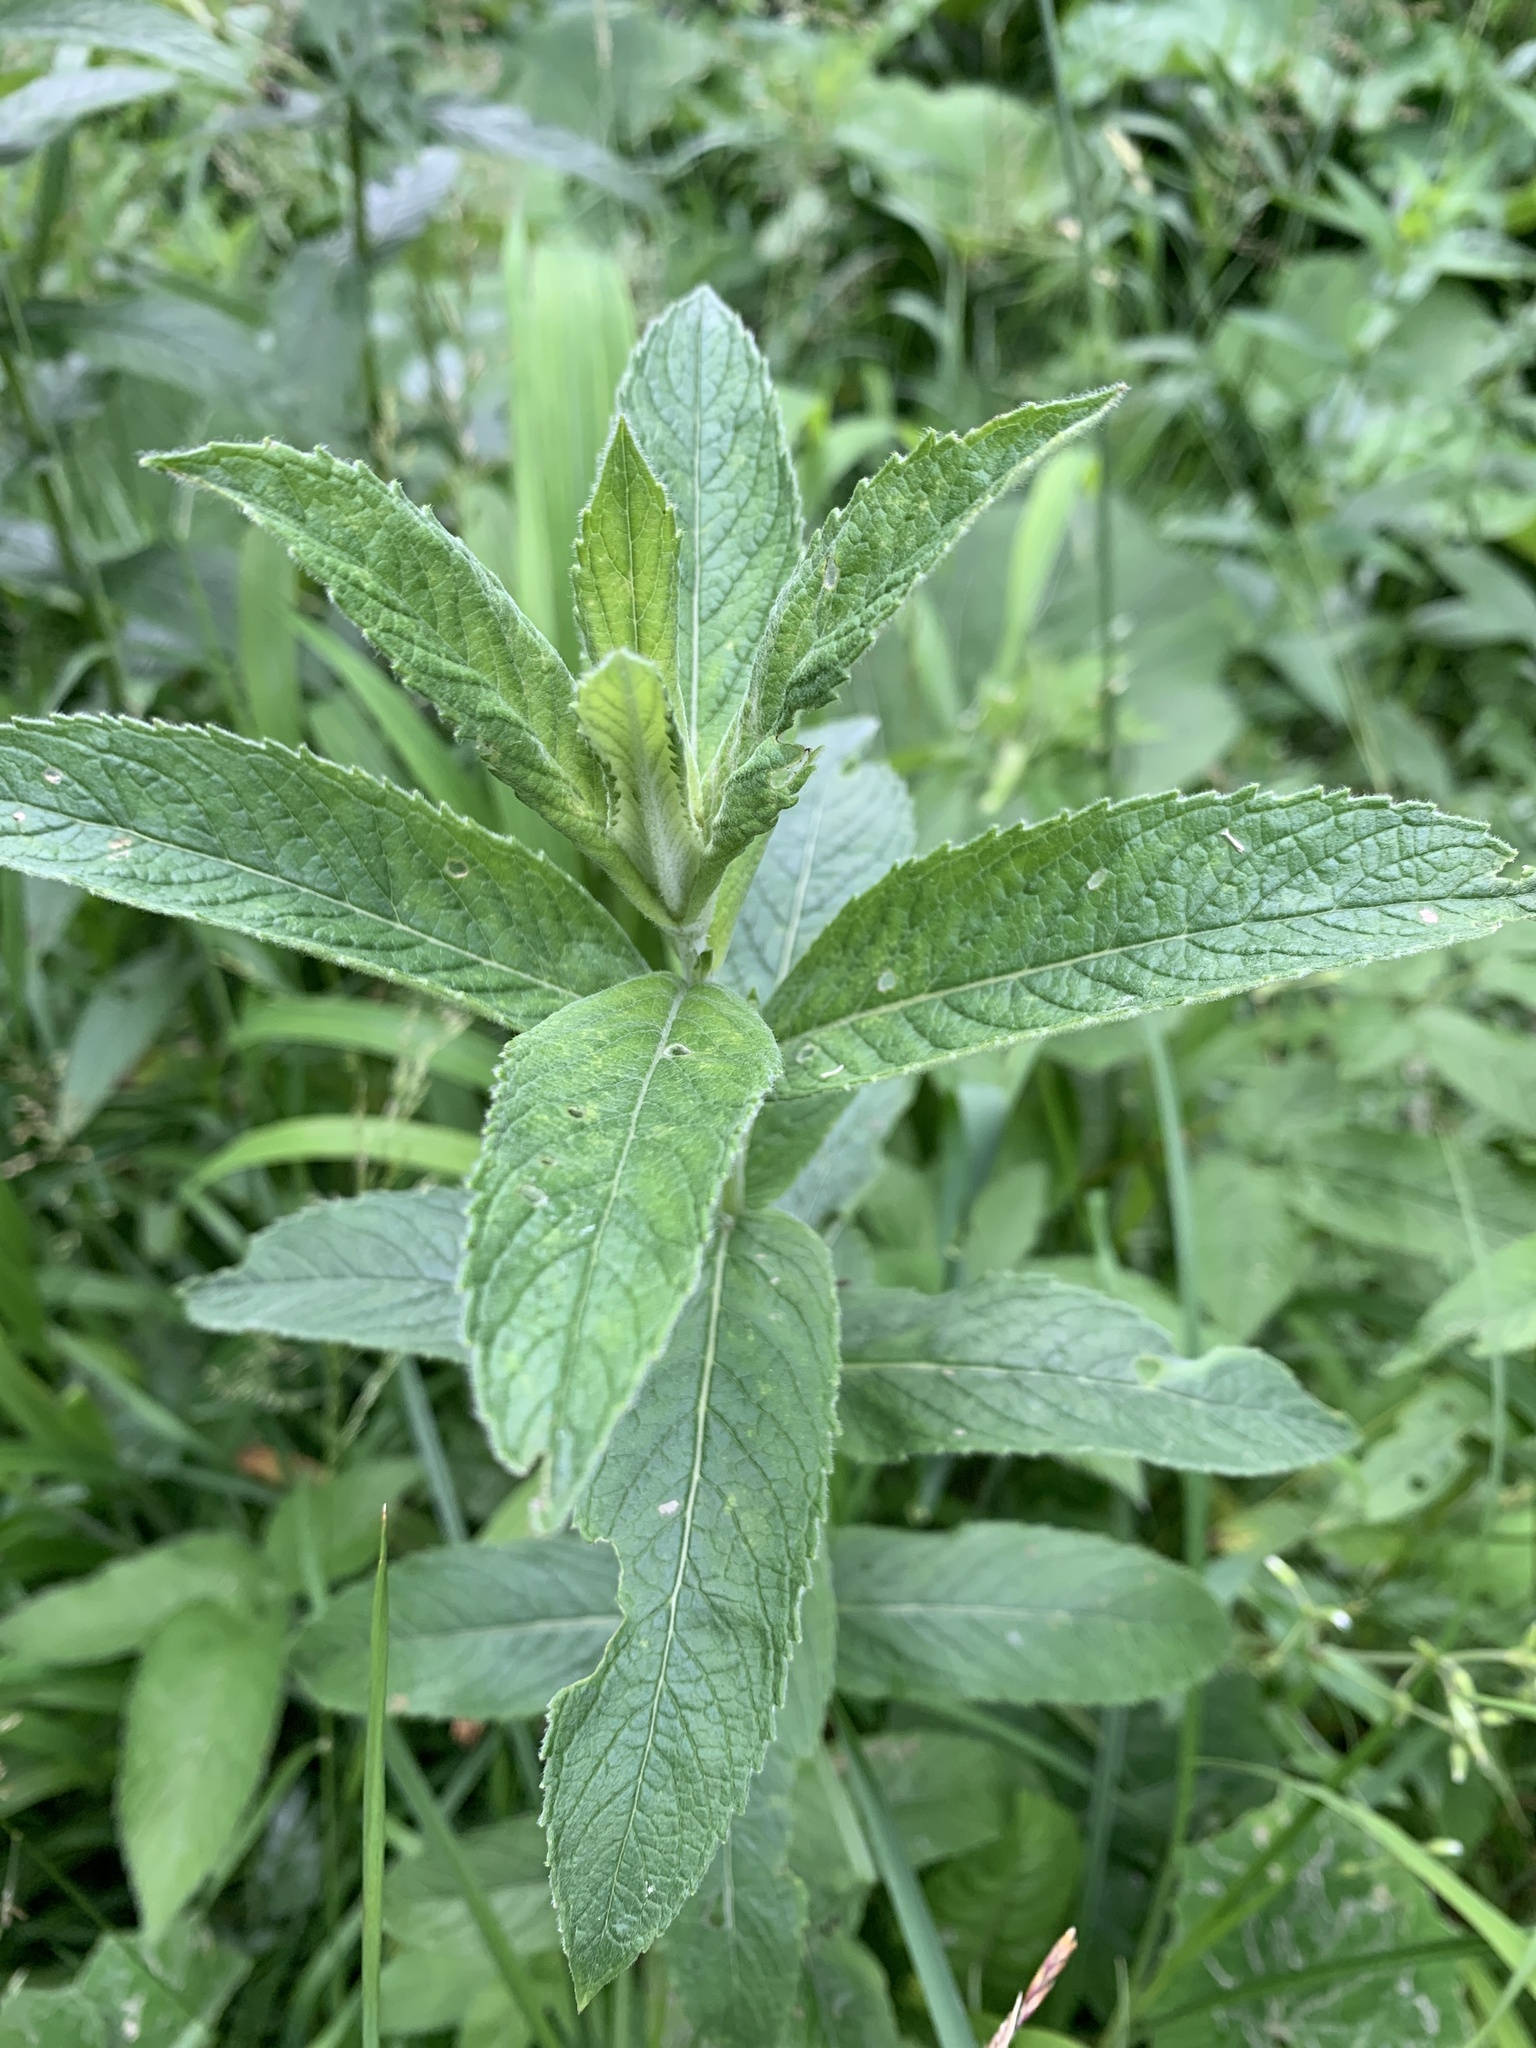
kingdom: Plantae
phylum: Tracheophyta
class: Magnoliopsida
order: Lamiales
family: Lamiaceae
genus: Mentha
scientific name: Mentha longifolia
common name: Horse mint
